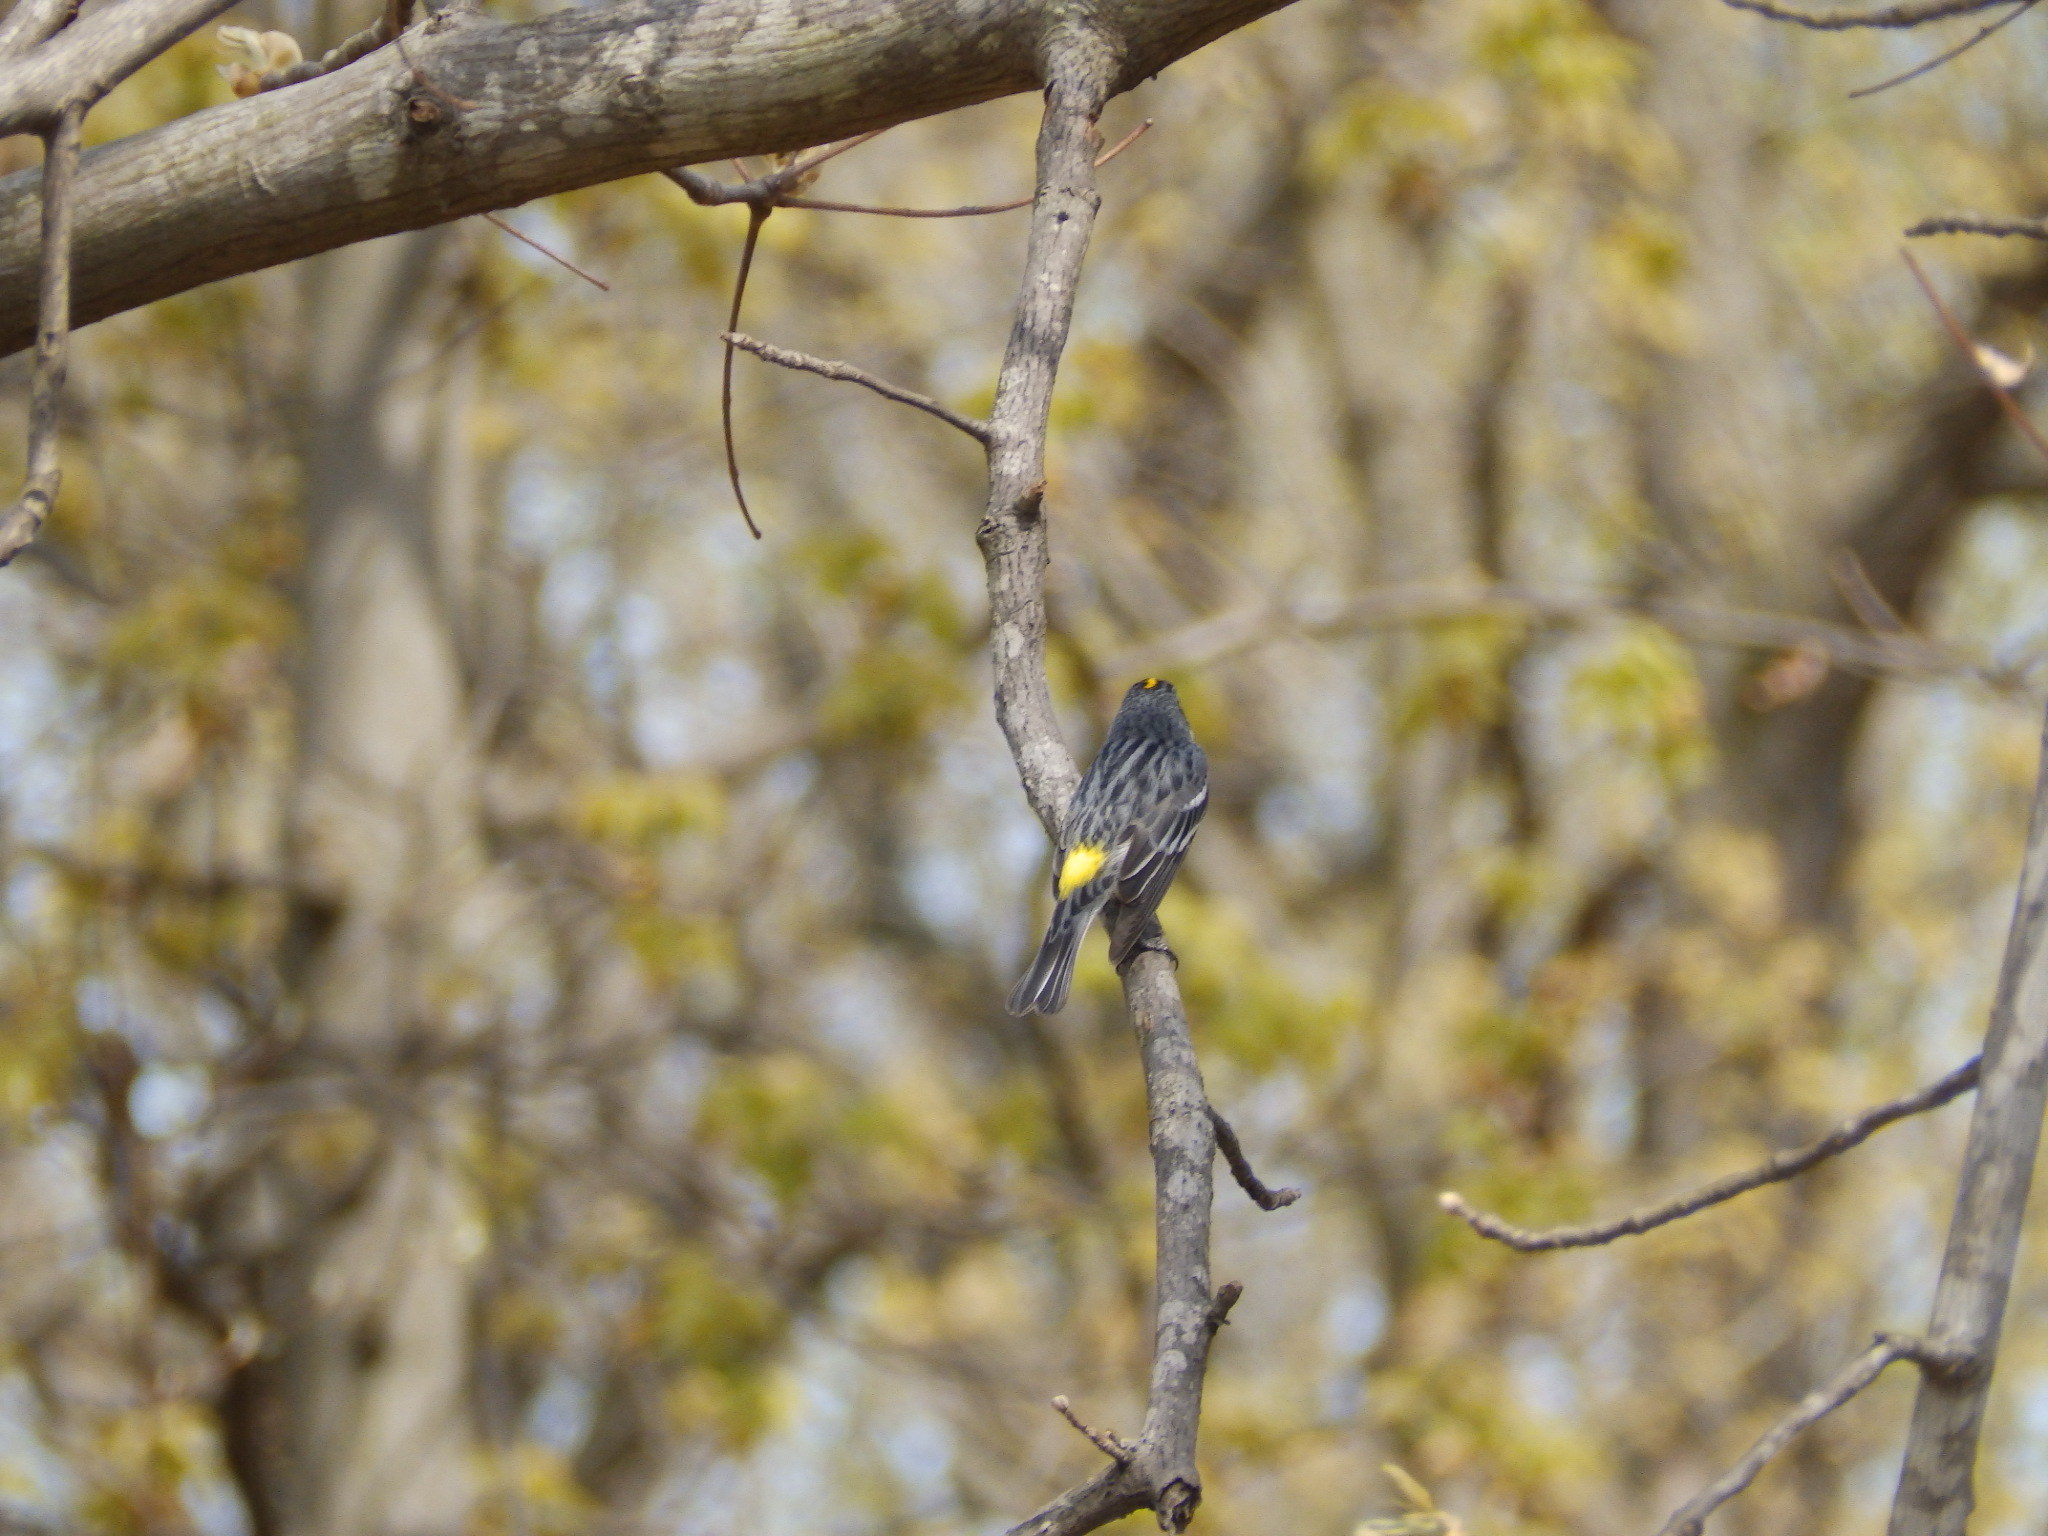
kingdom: Animalia
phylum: Chordata
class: Aves
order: Passeriformes
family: Parulidae
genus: Setophaga
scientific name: Setophaga coronata
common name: Myrtle warbler
